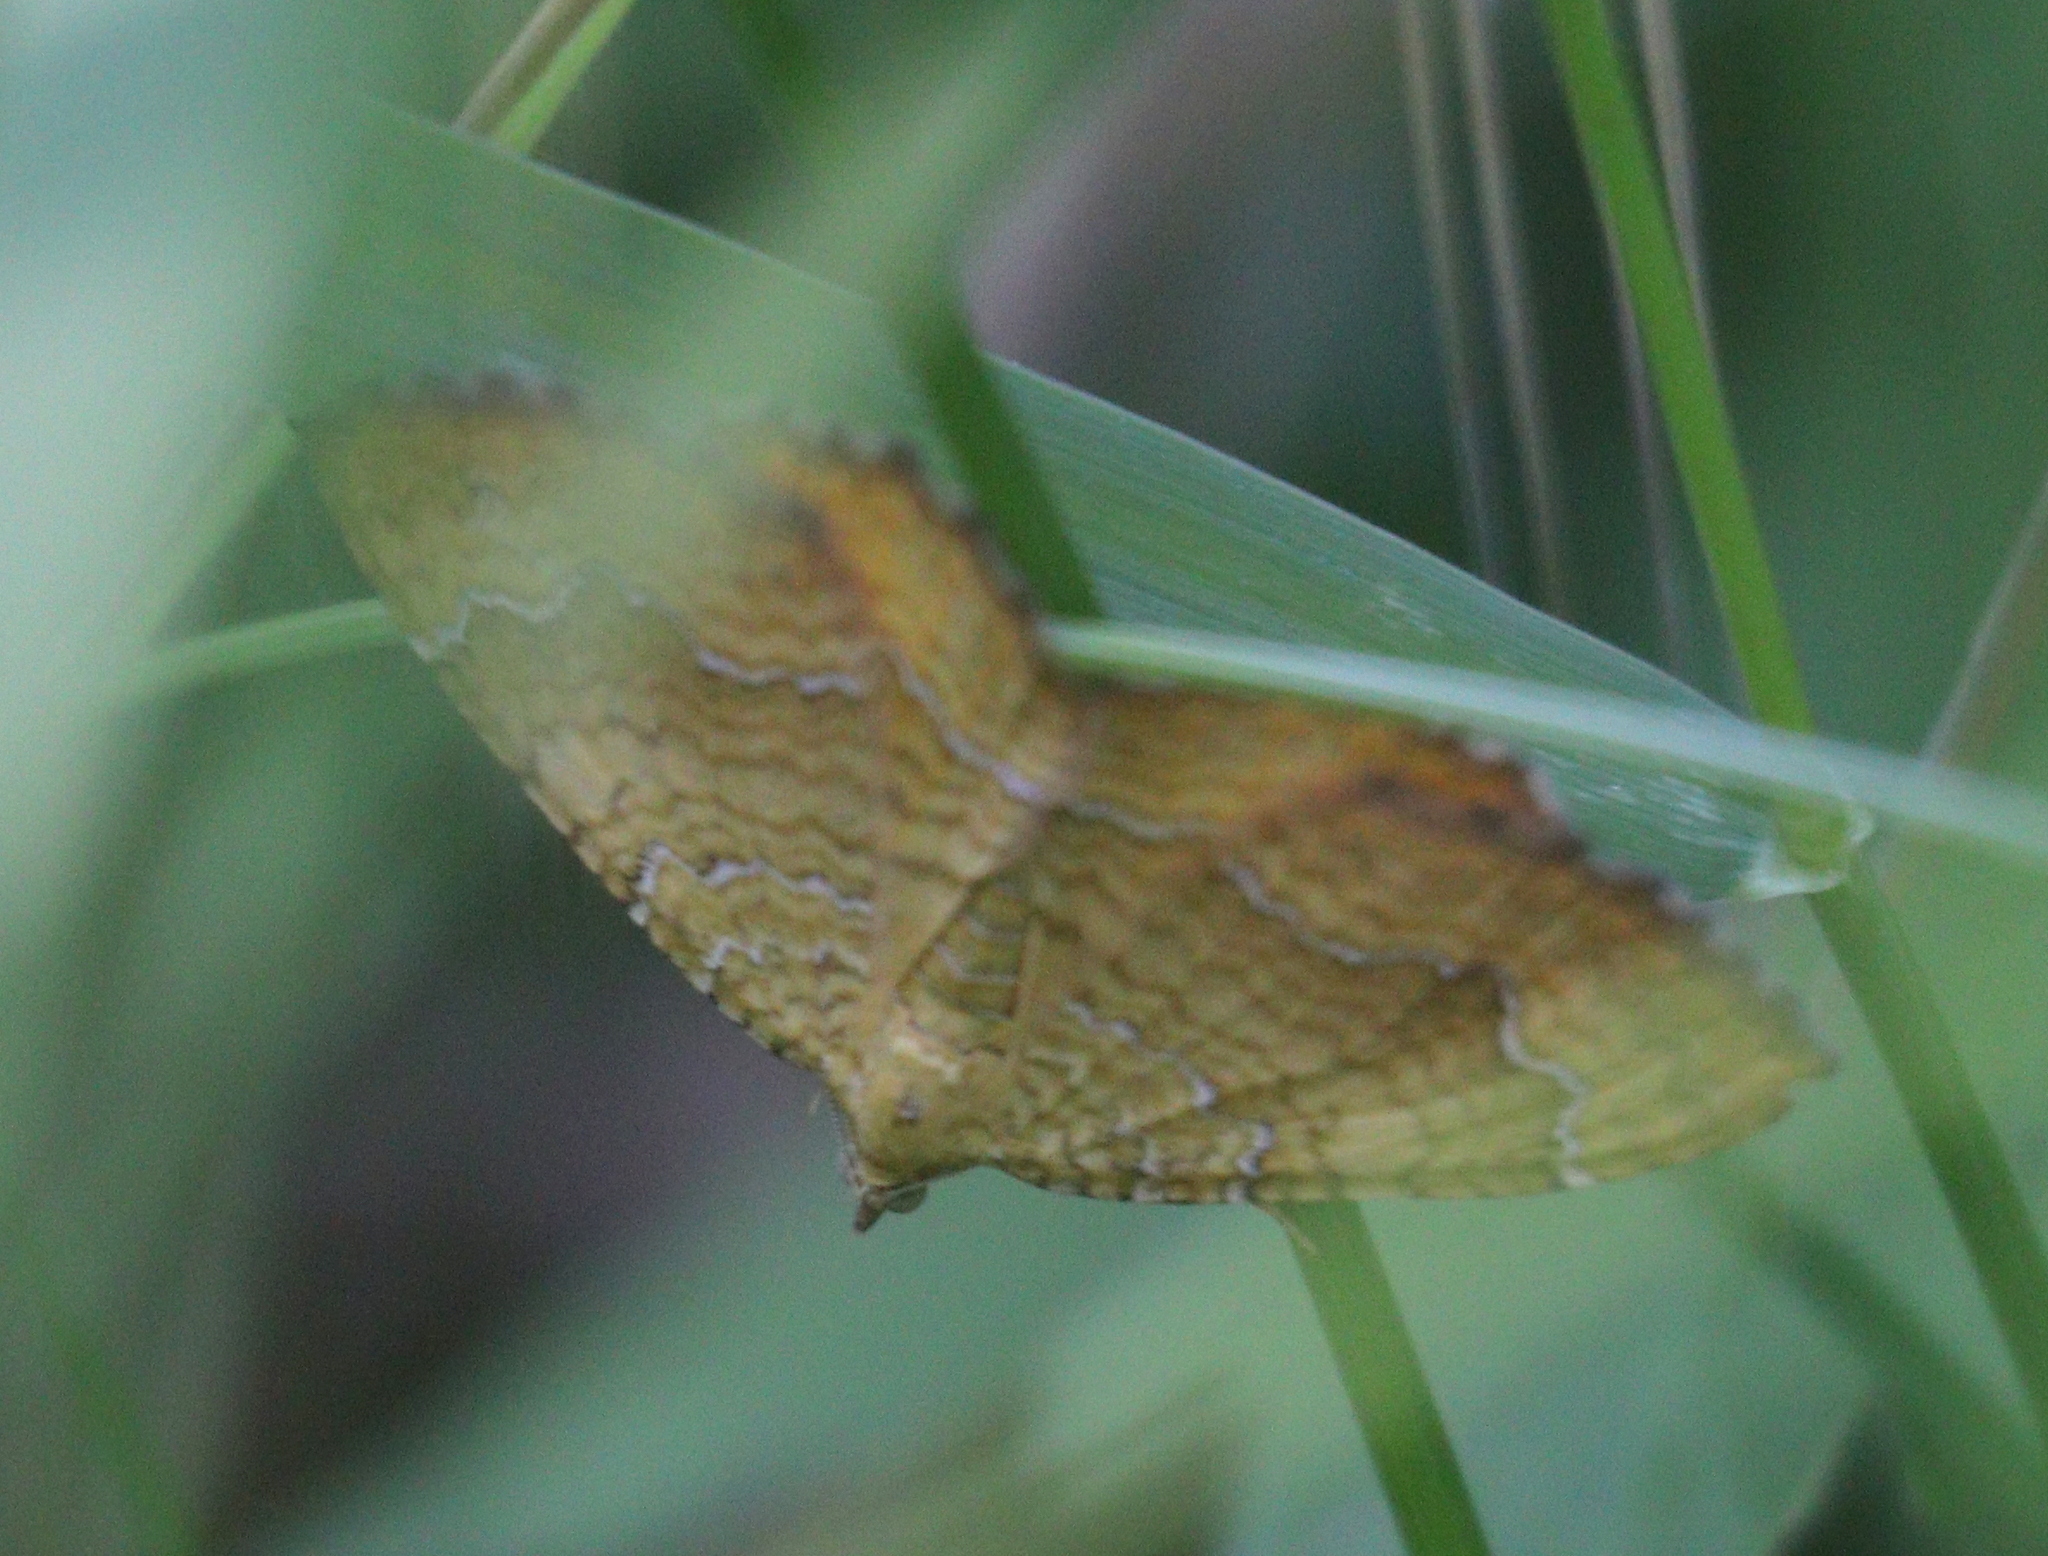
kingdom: Animalia
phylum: Arthropoda
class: Insecta
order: Lepidoptera
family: Geometridae
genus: Camptogramma
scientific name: Camptogramma bilineata
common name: Yellow shell
